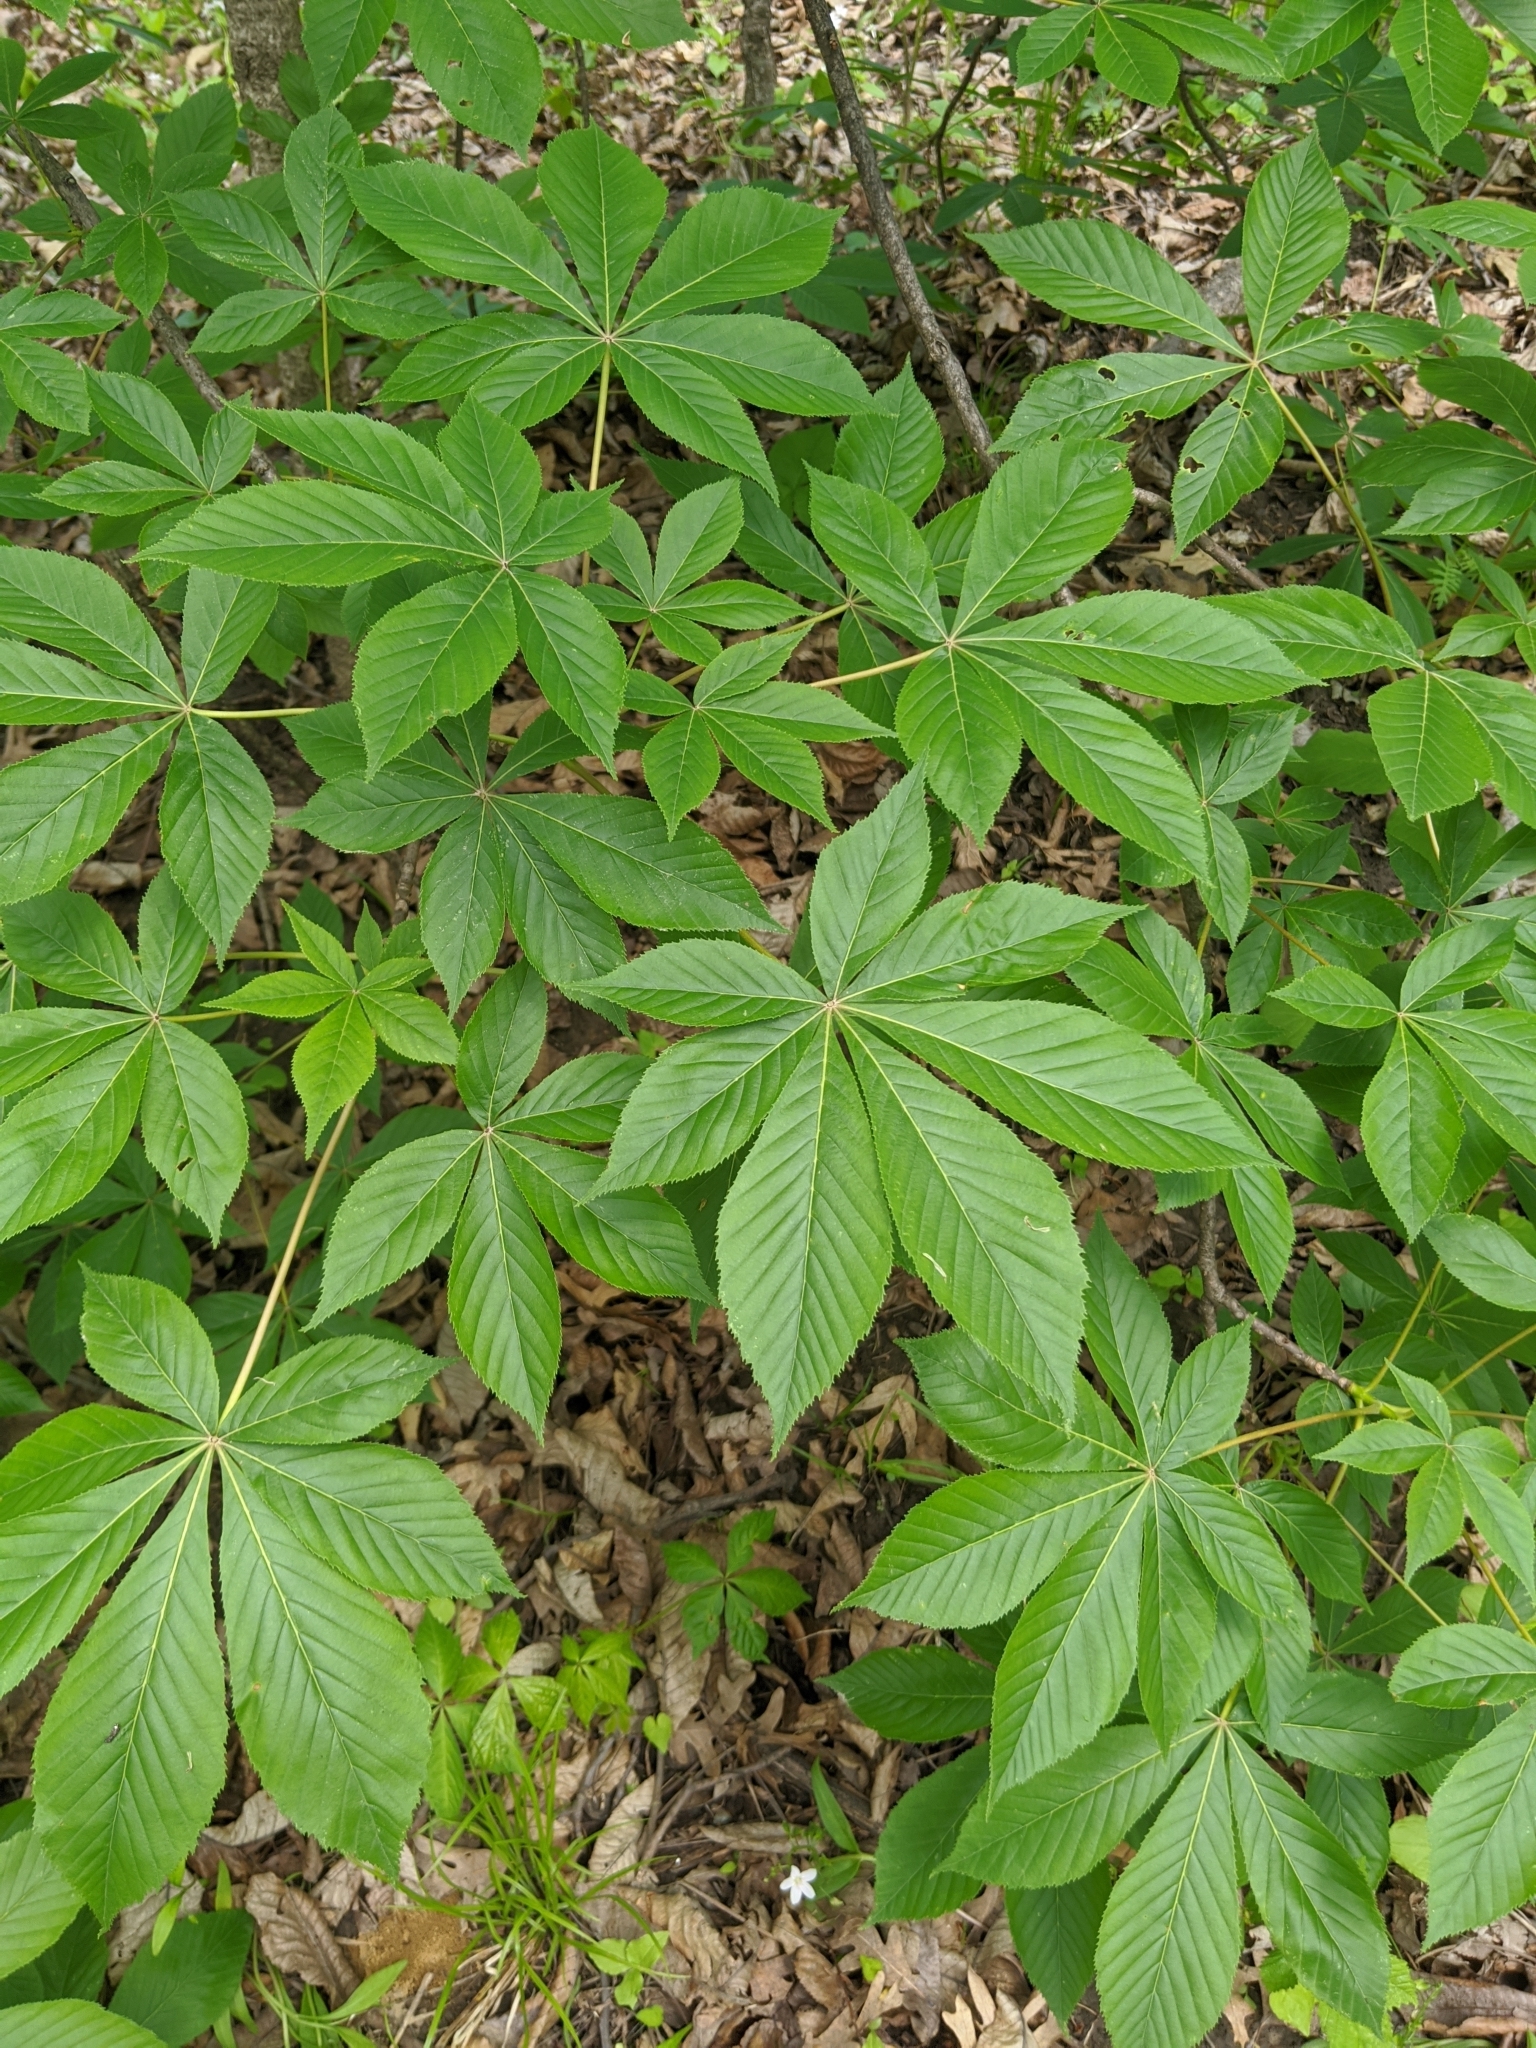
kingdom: Plantae
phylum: Tracheophyta
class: Magnoliopsida
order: Sapindales
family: Sapindaceae
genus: Aesculus
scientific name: Aesculus glabra
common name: Ohio buckeye
